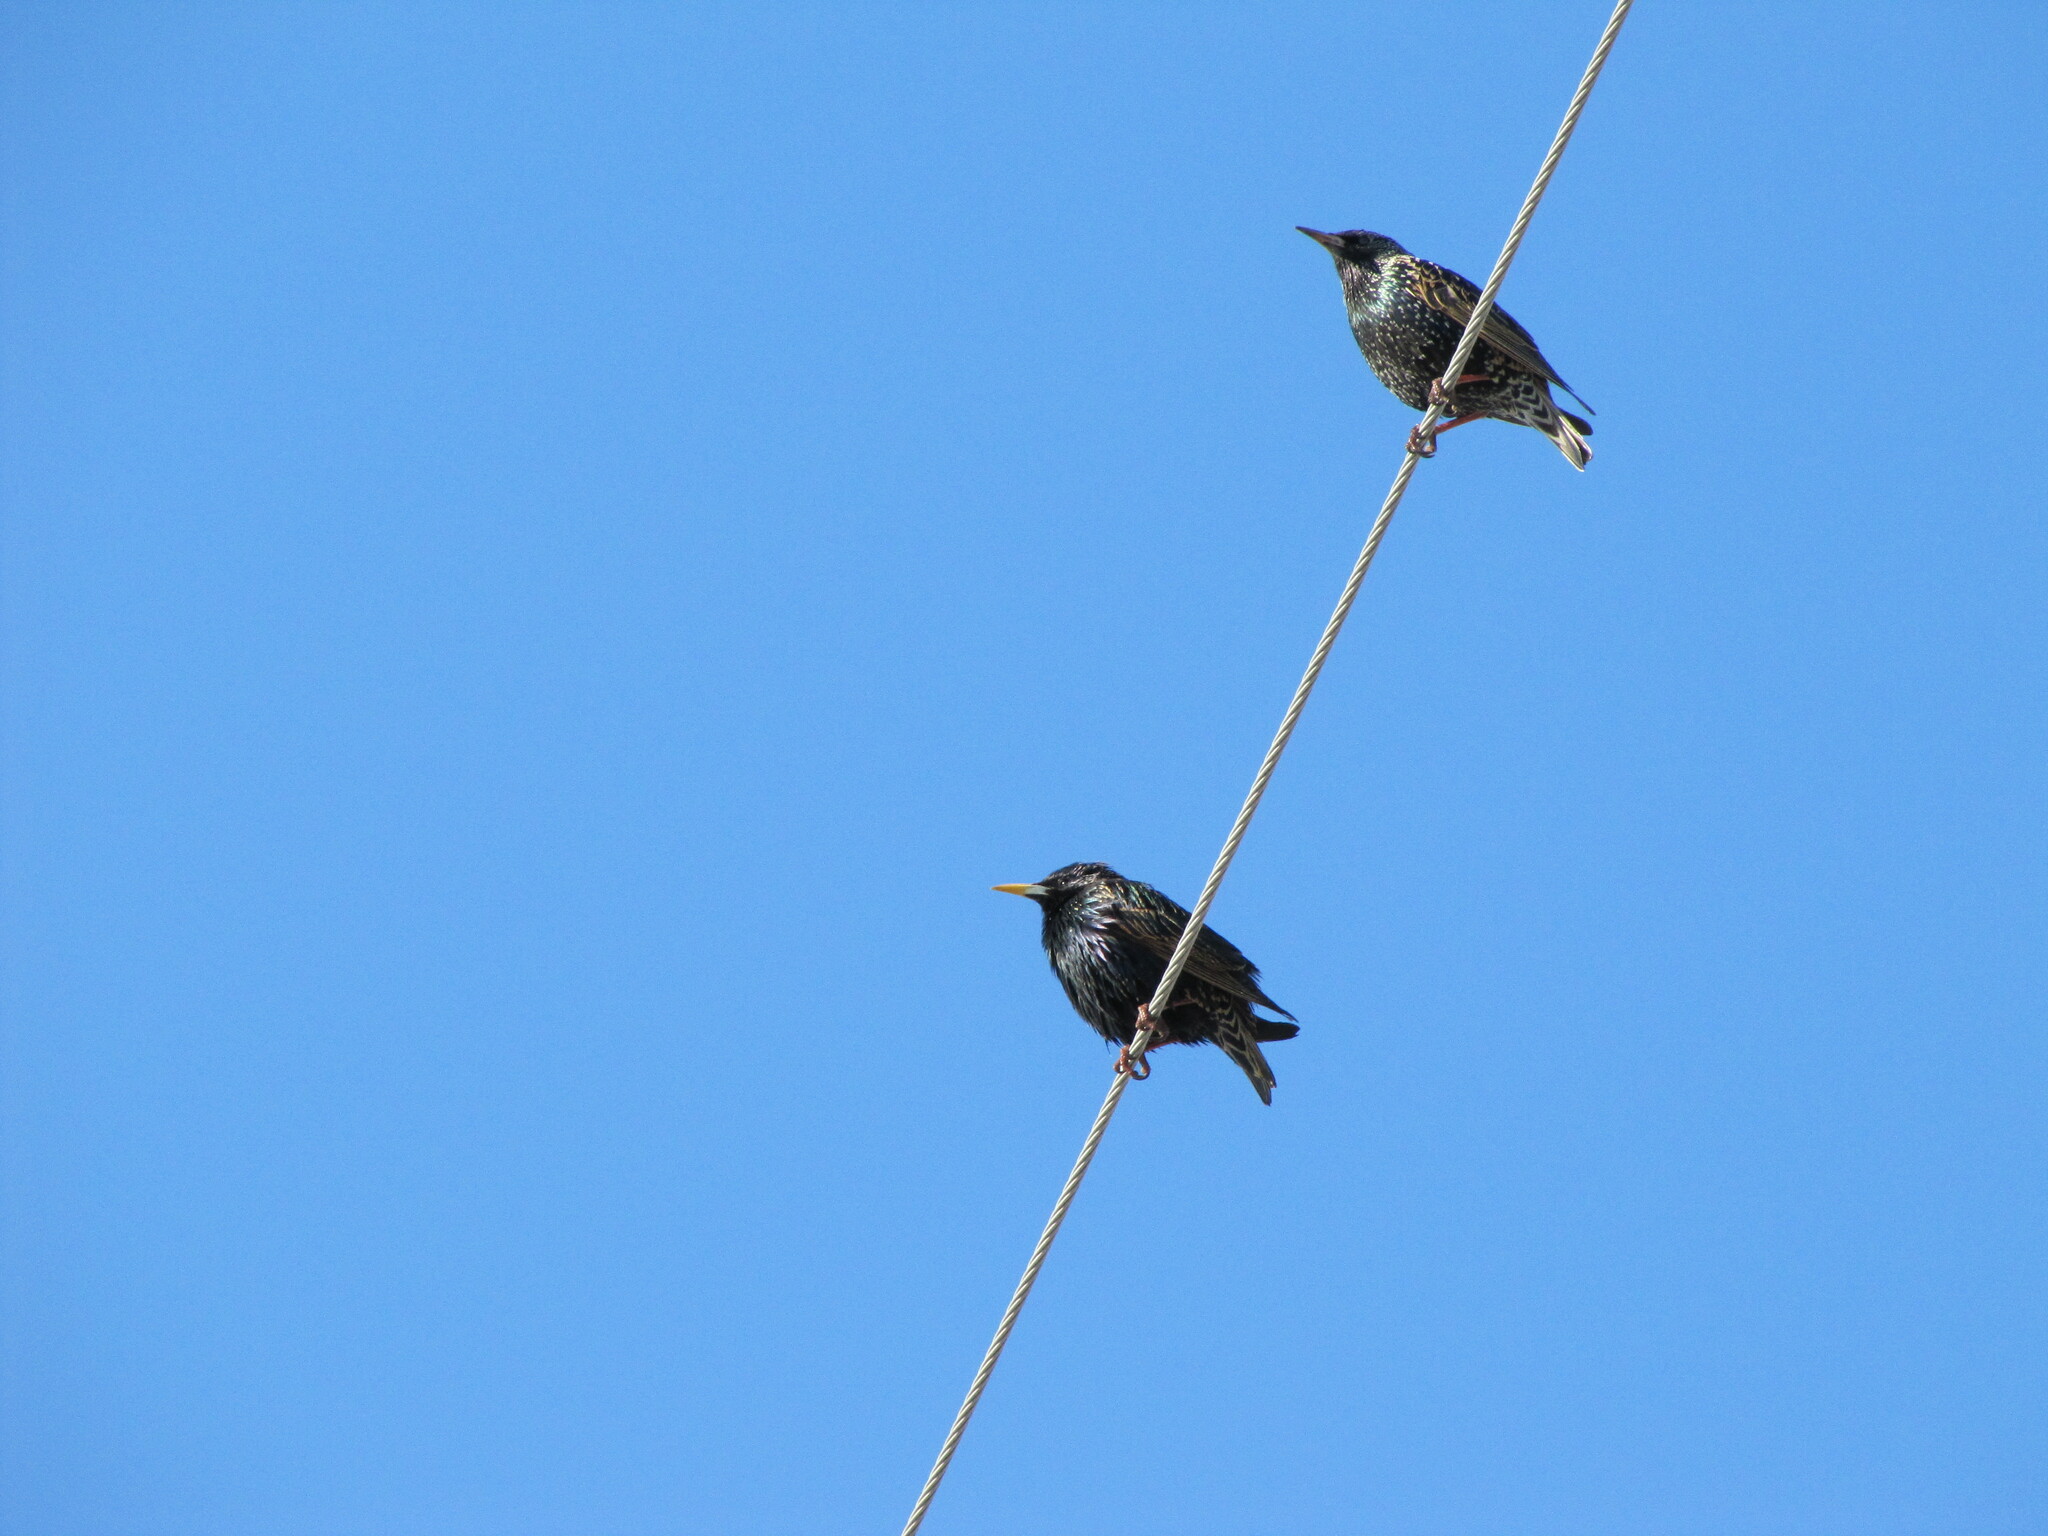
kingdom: Animalia
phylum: Chordata
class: Aves
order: Passeriformes
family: Sturnidae
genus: Sturnus
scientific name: Sturnus vulgaris
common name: Common starling
